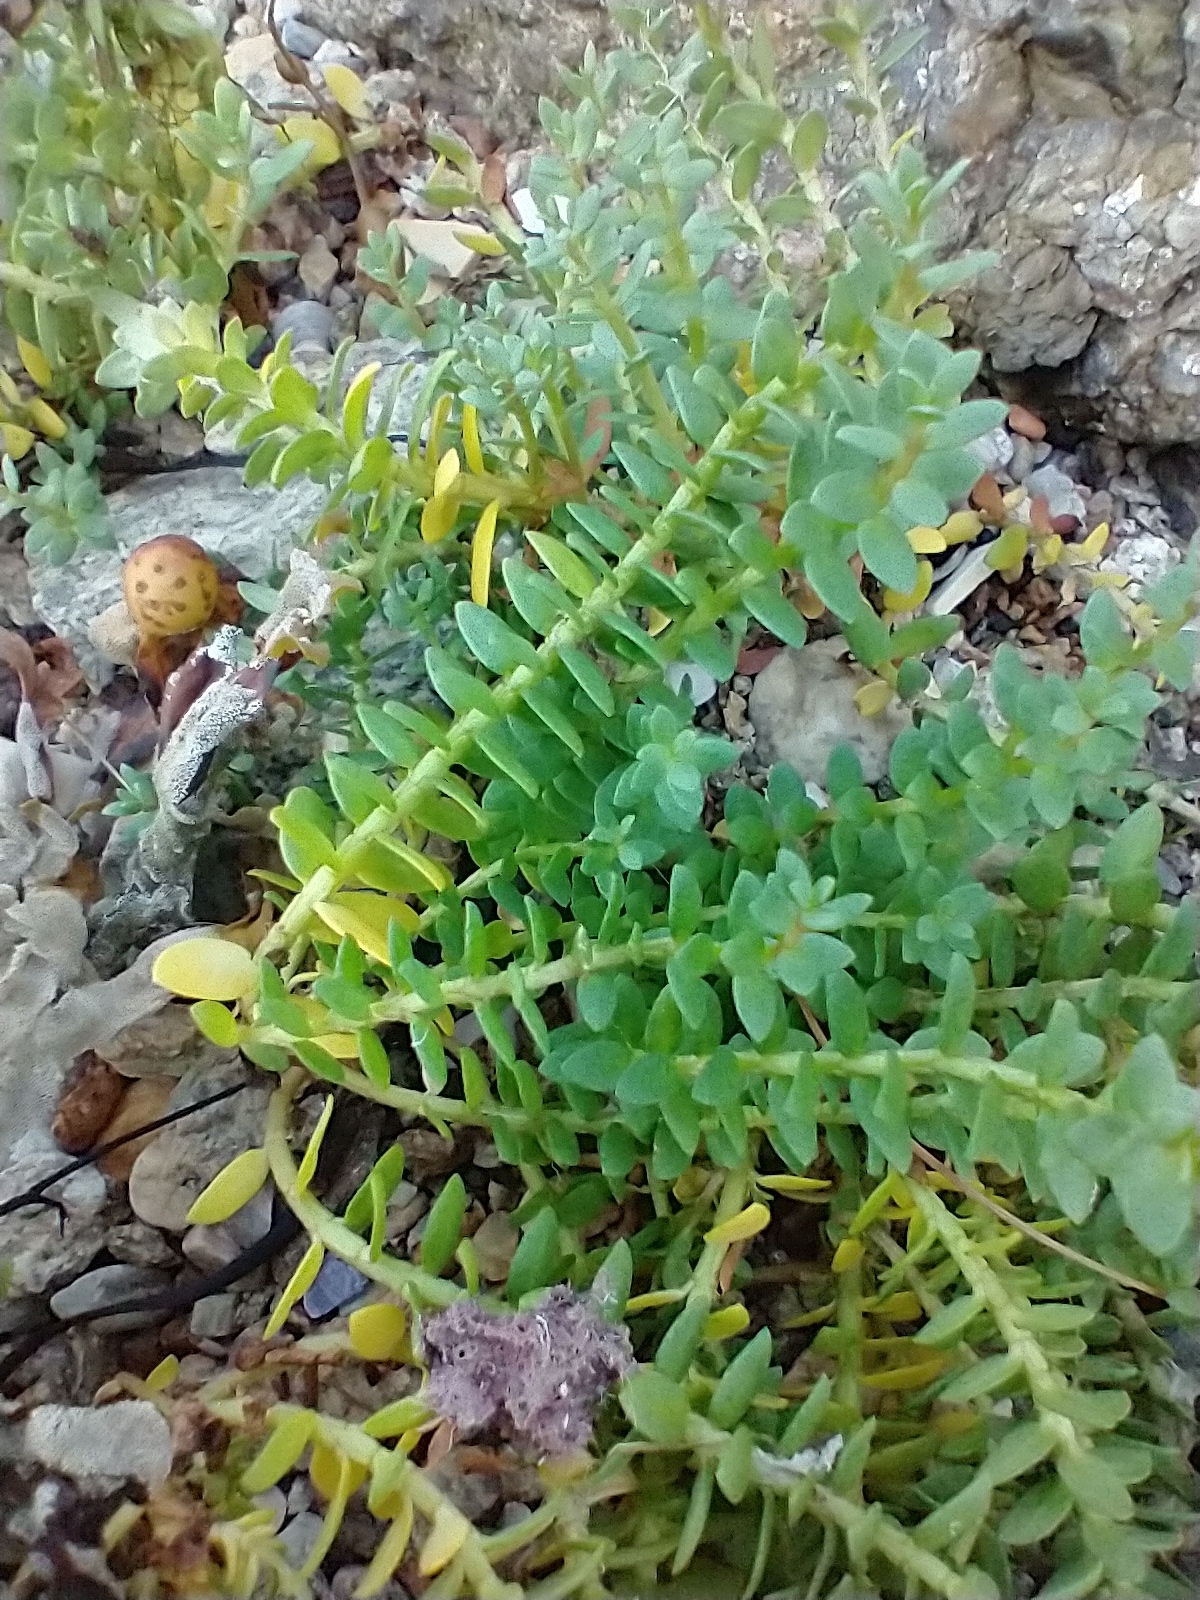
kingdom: Plantae
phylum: Tracheophyta
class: Magnoliopsida
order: Ericales
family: Primulaceae
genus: Lysimachia
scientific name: Lysimachia maritima
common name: Sea milkwort
